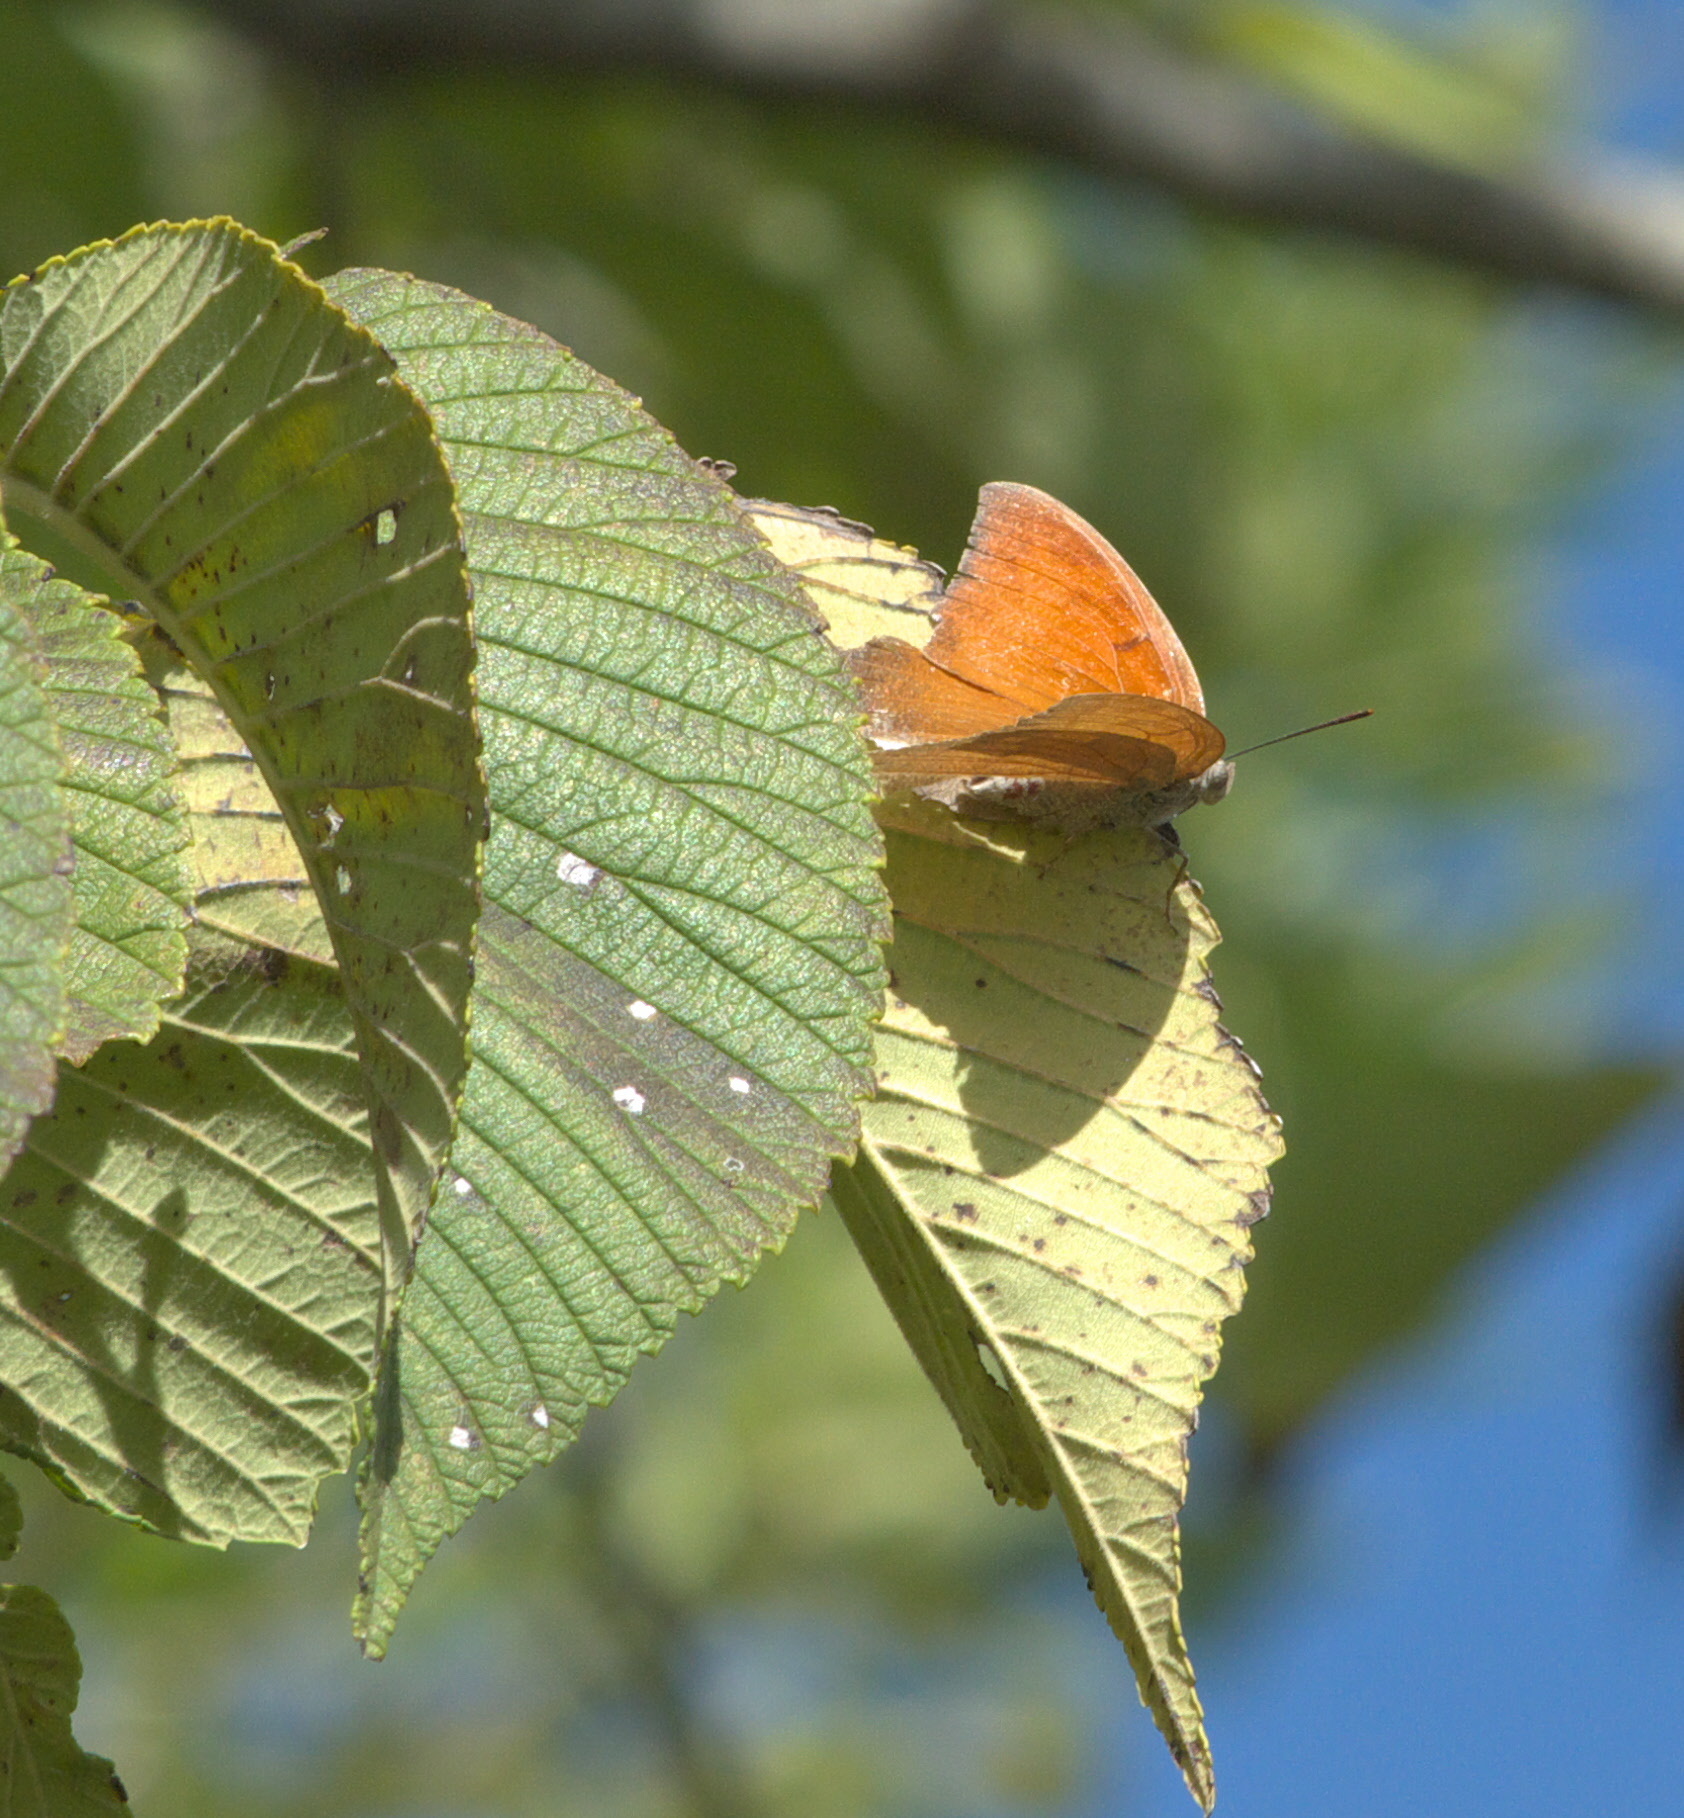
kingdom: Animalia
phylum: Arthropoda
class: Insecta
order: Lepidoptera
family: Nymphalidae
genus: Anaea
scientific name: Anaea andria
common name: Goatweed leafwing
